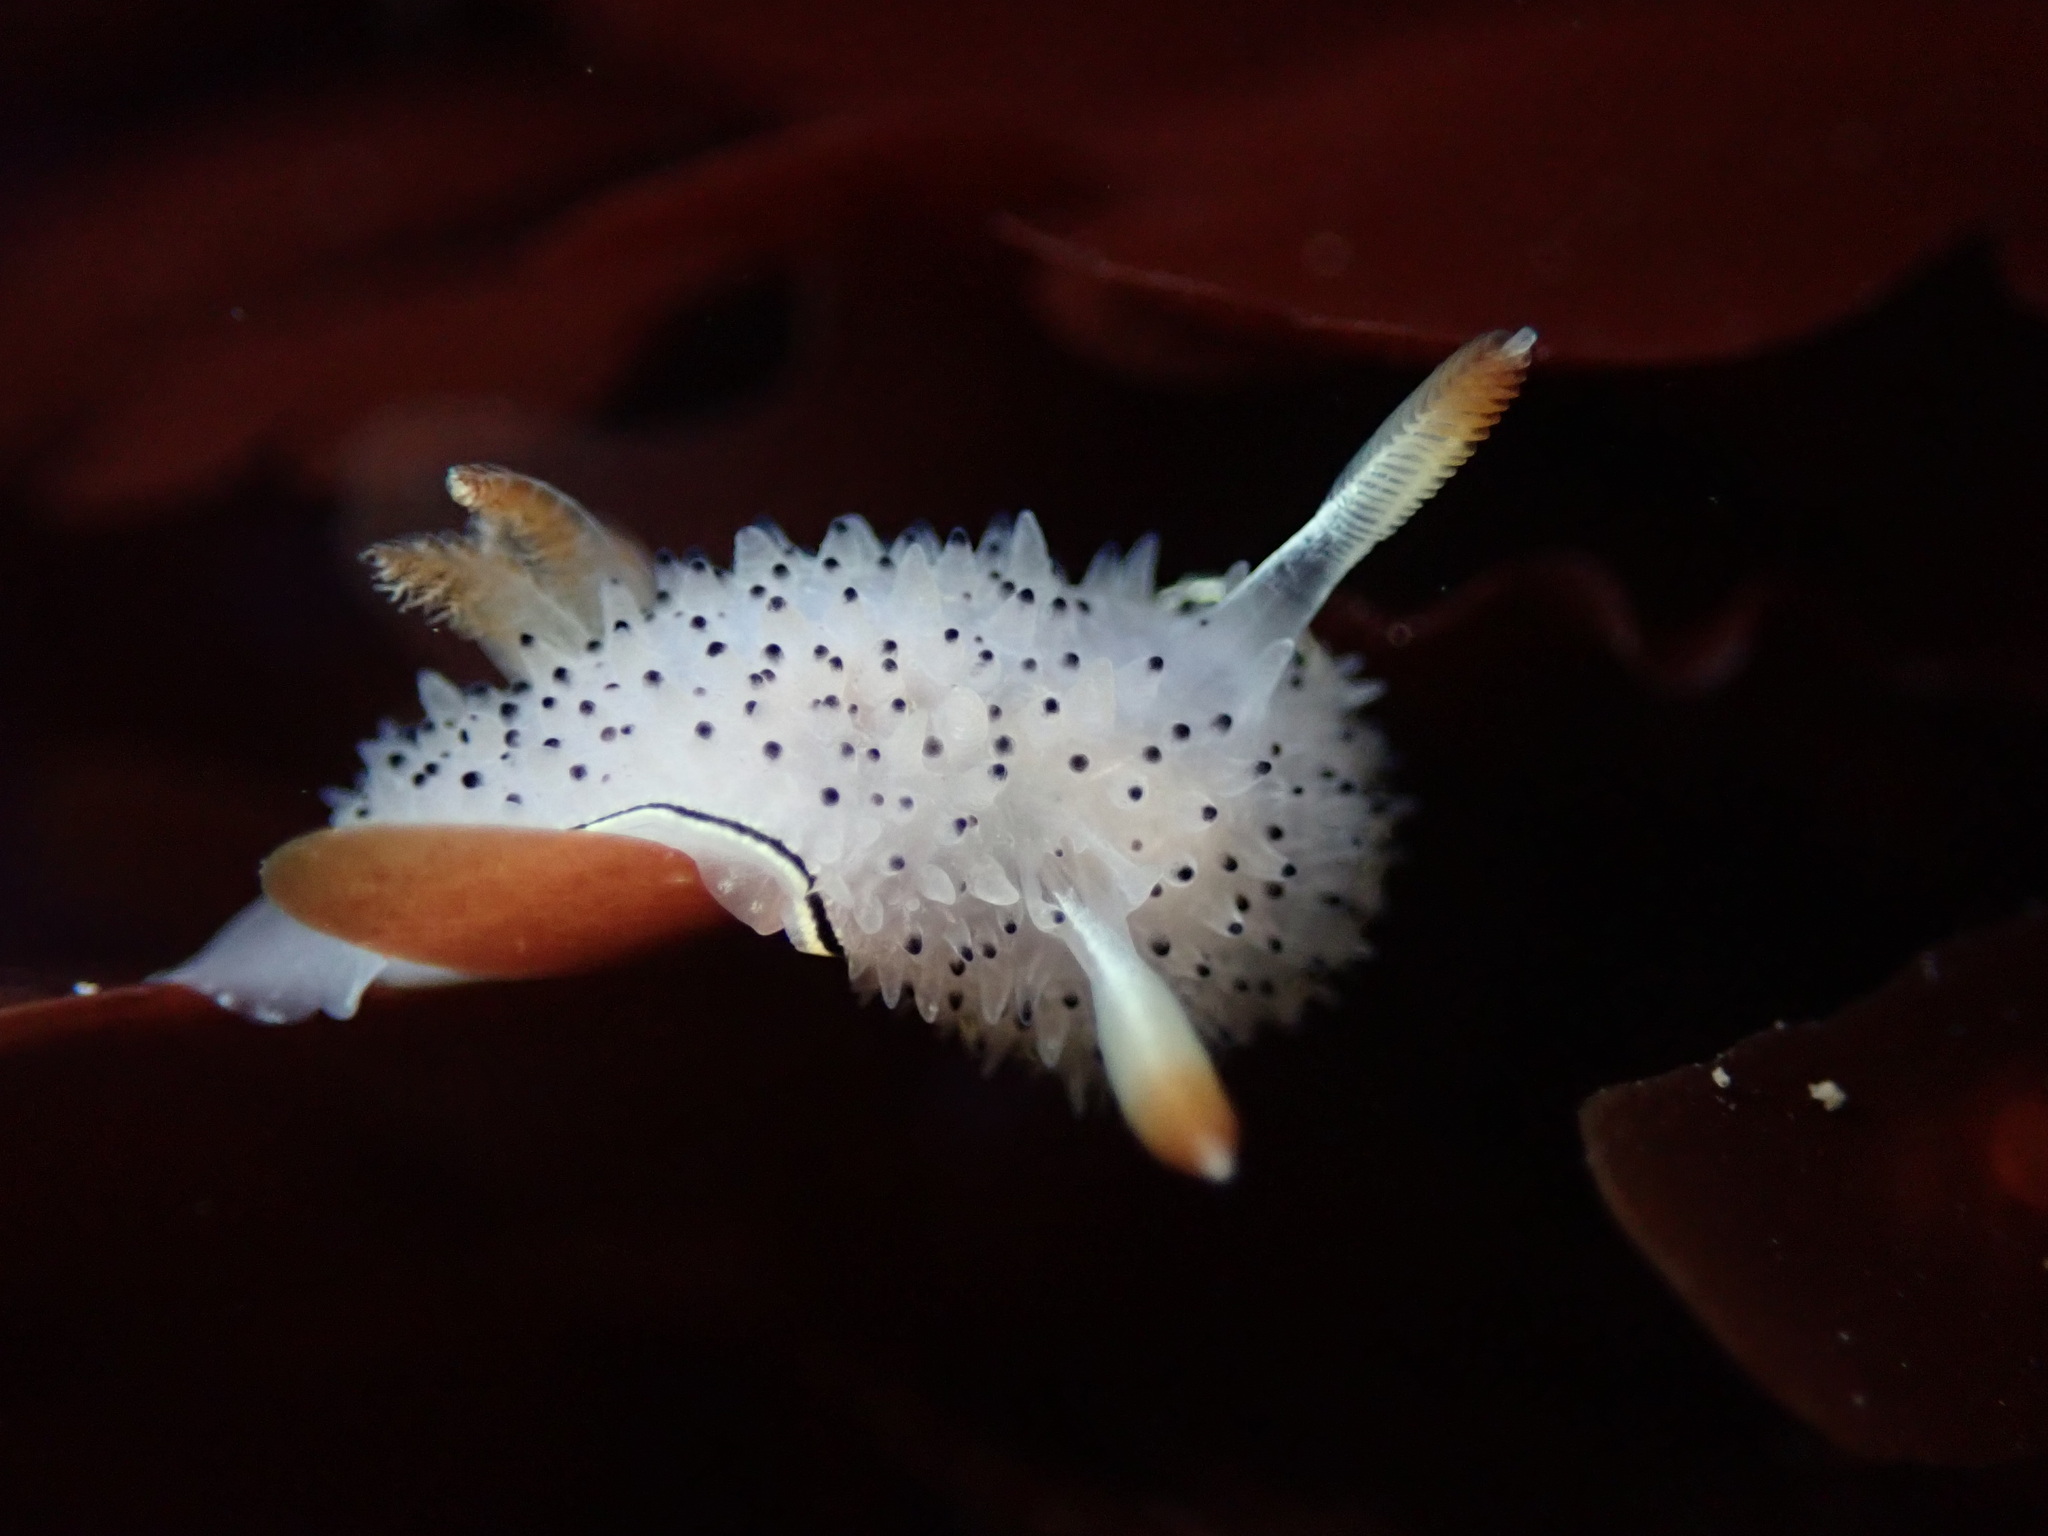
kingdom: Animalia
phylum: Mollusca
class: Gastropoda
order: Nudibranchia
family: Onchidorididae
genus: Acanthodoris
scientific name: Acanthodoris rhodoceras
